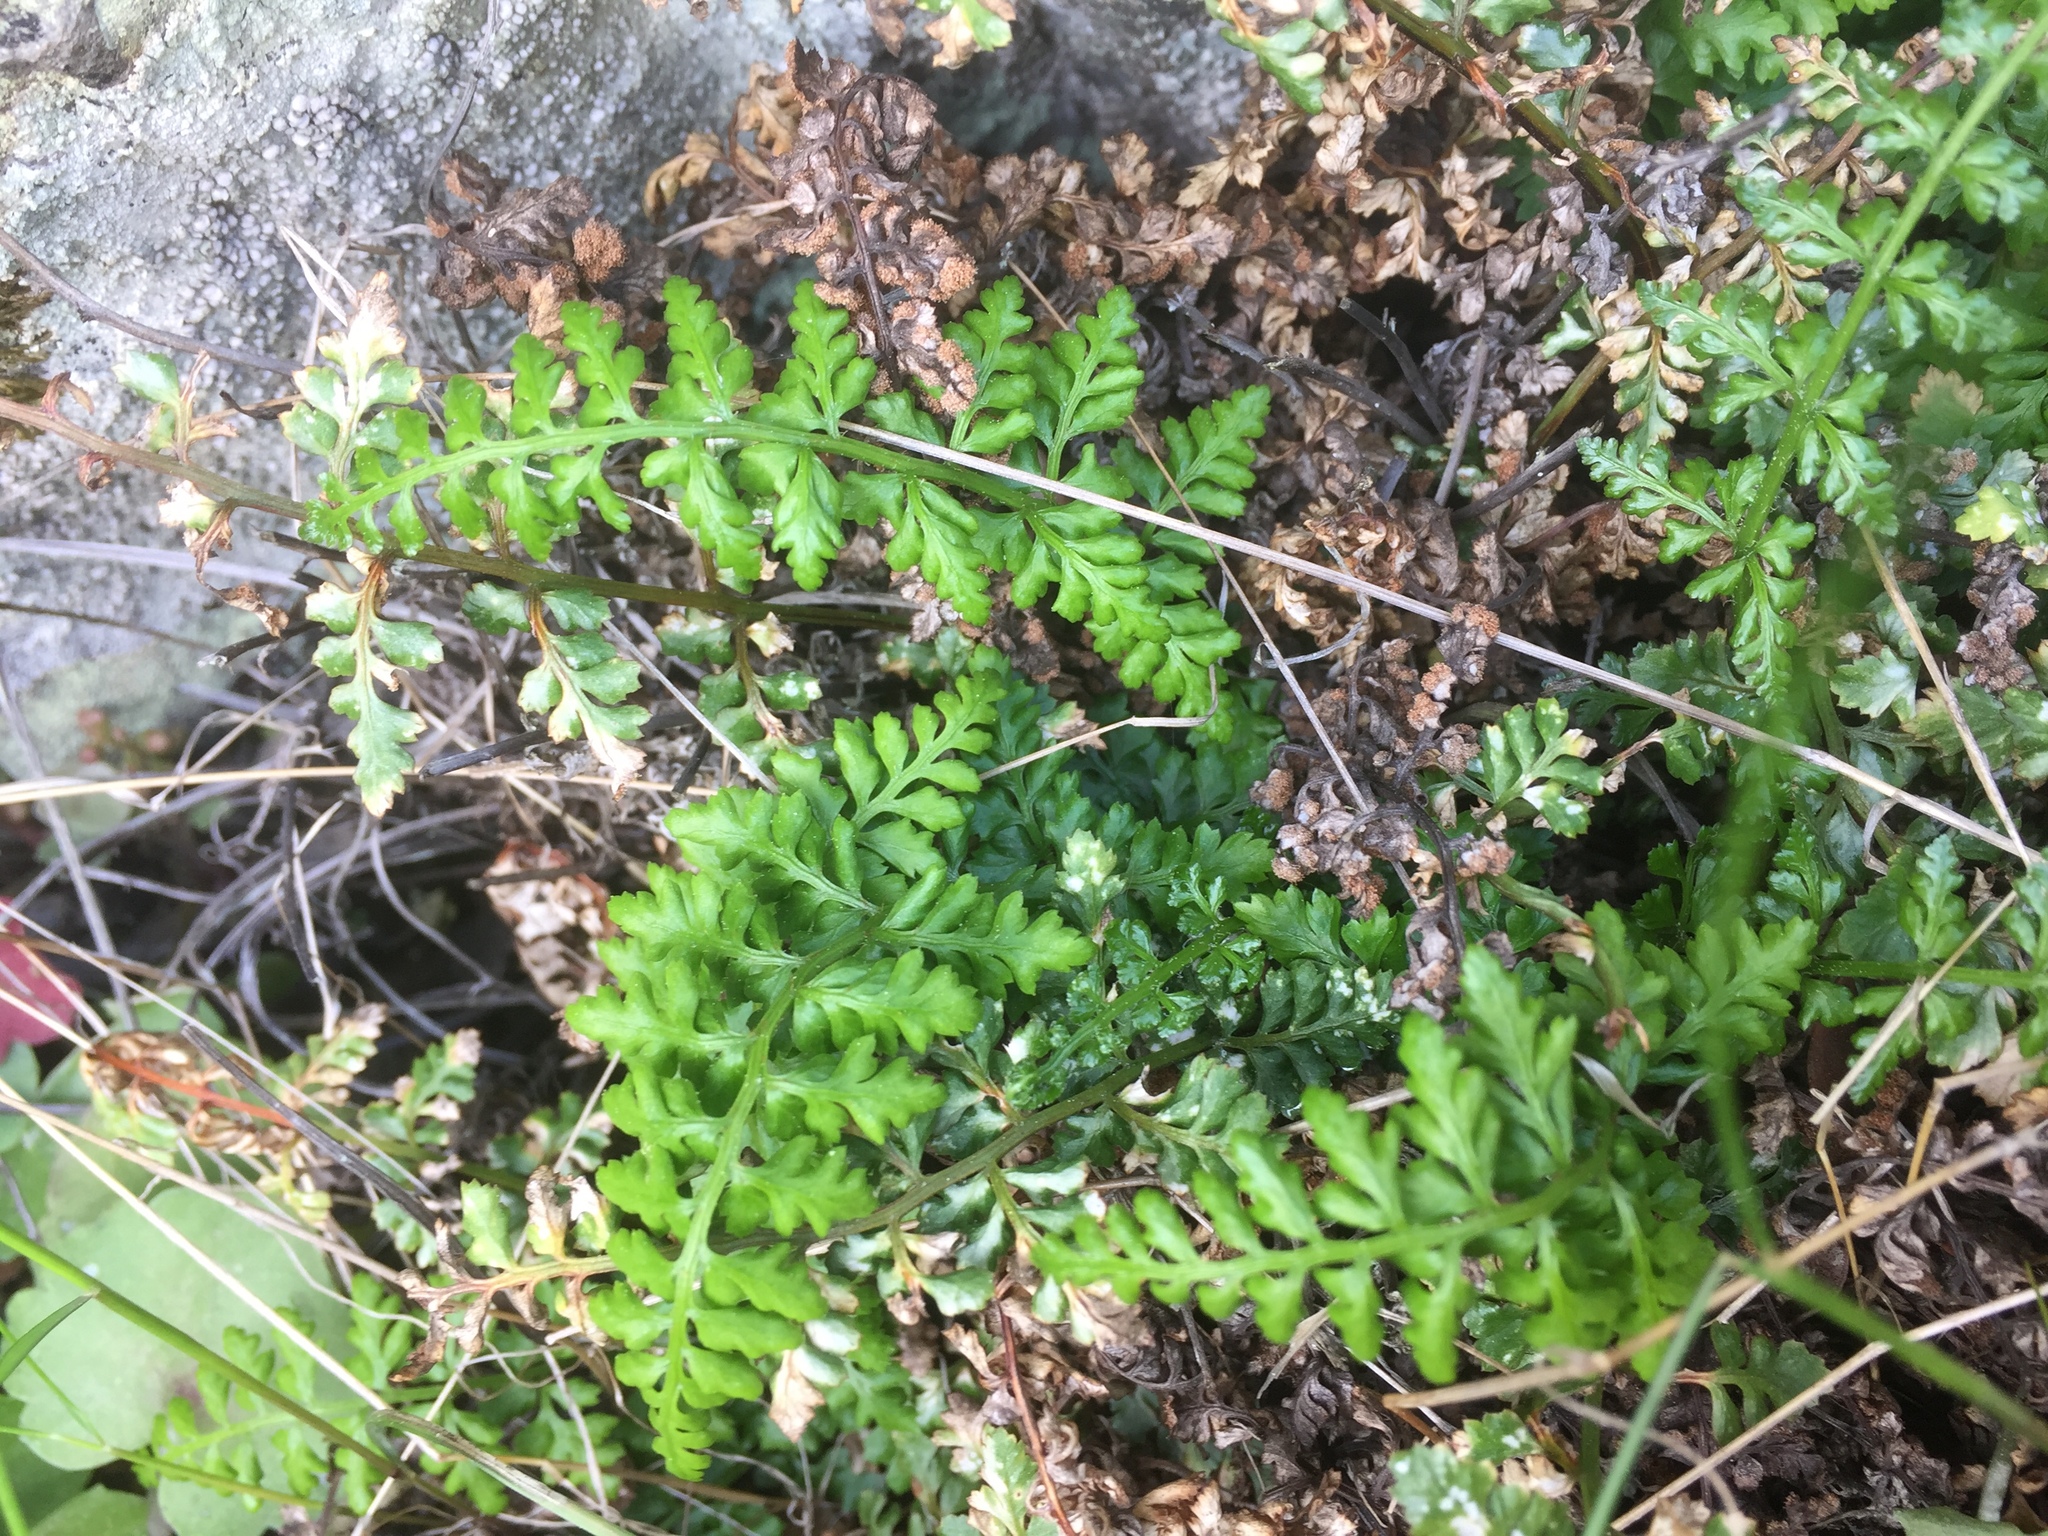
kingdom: Plantae
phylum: Tracheophyta
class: Polypodiopsida
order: Polypodiales
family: Aspleniaceae
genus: Asplenium
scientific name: Asplenium obovatum
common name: Lanceolate spleenwort
